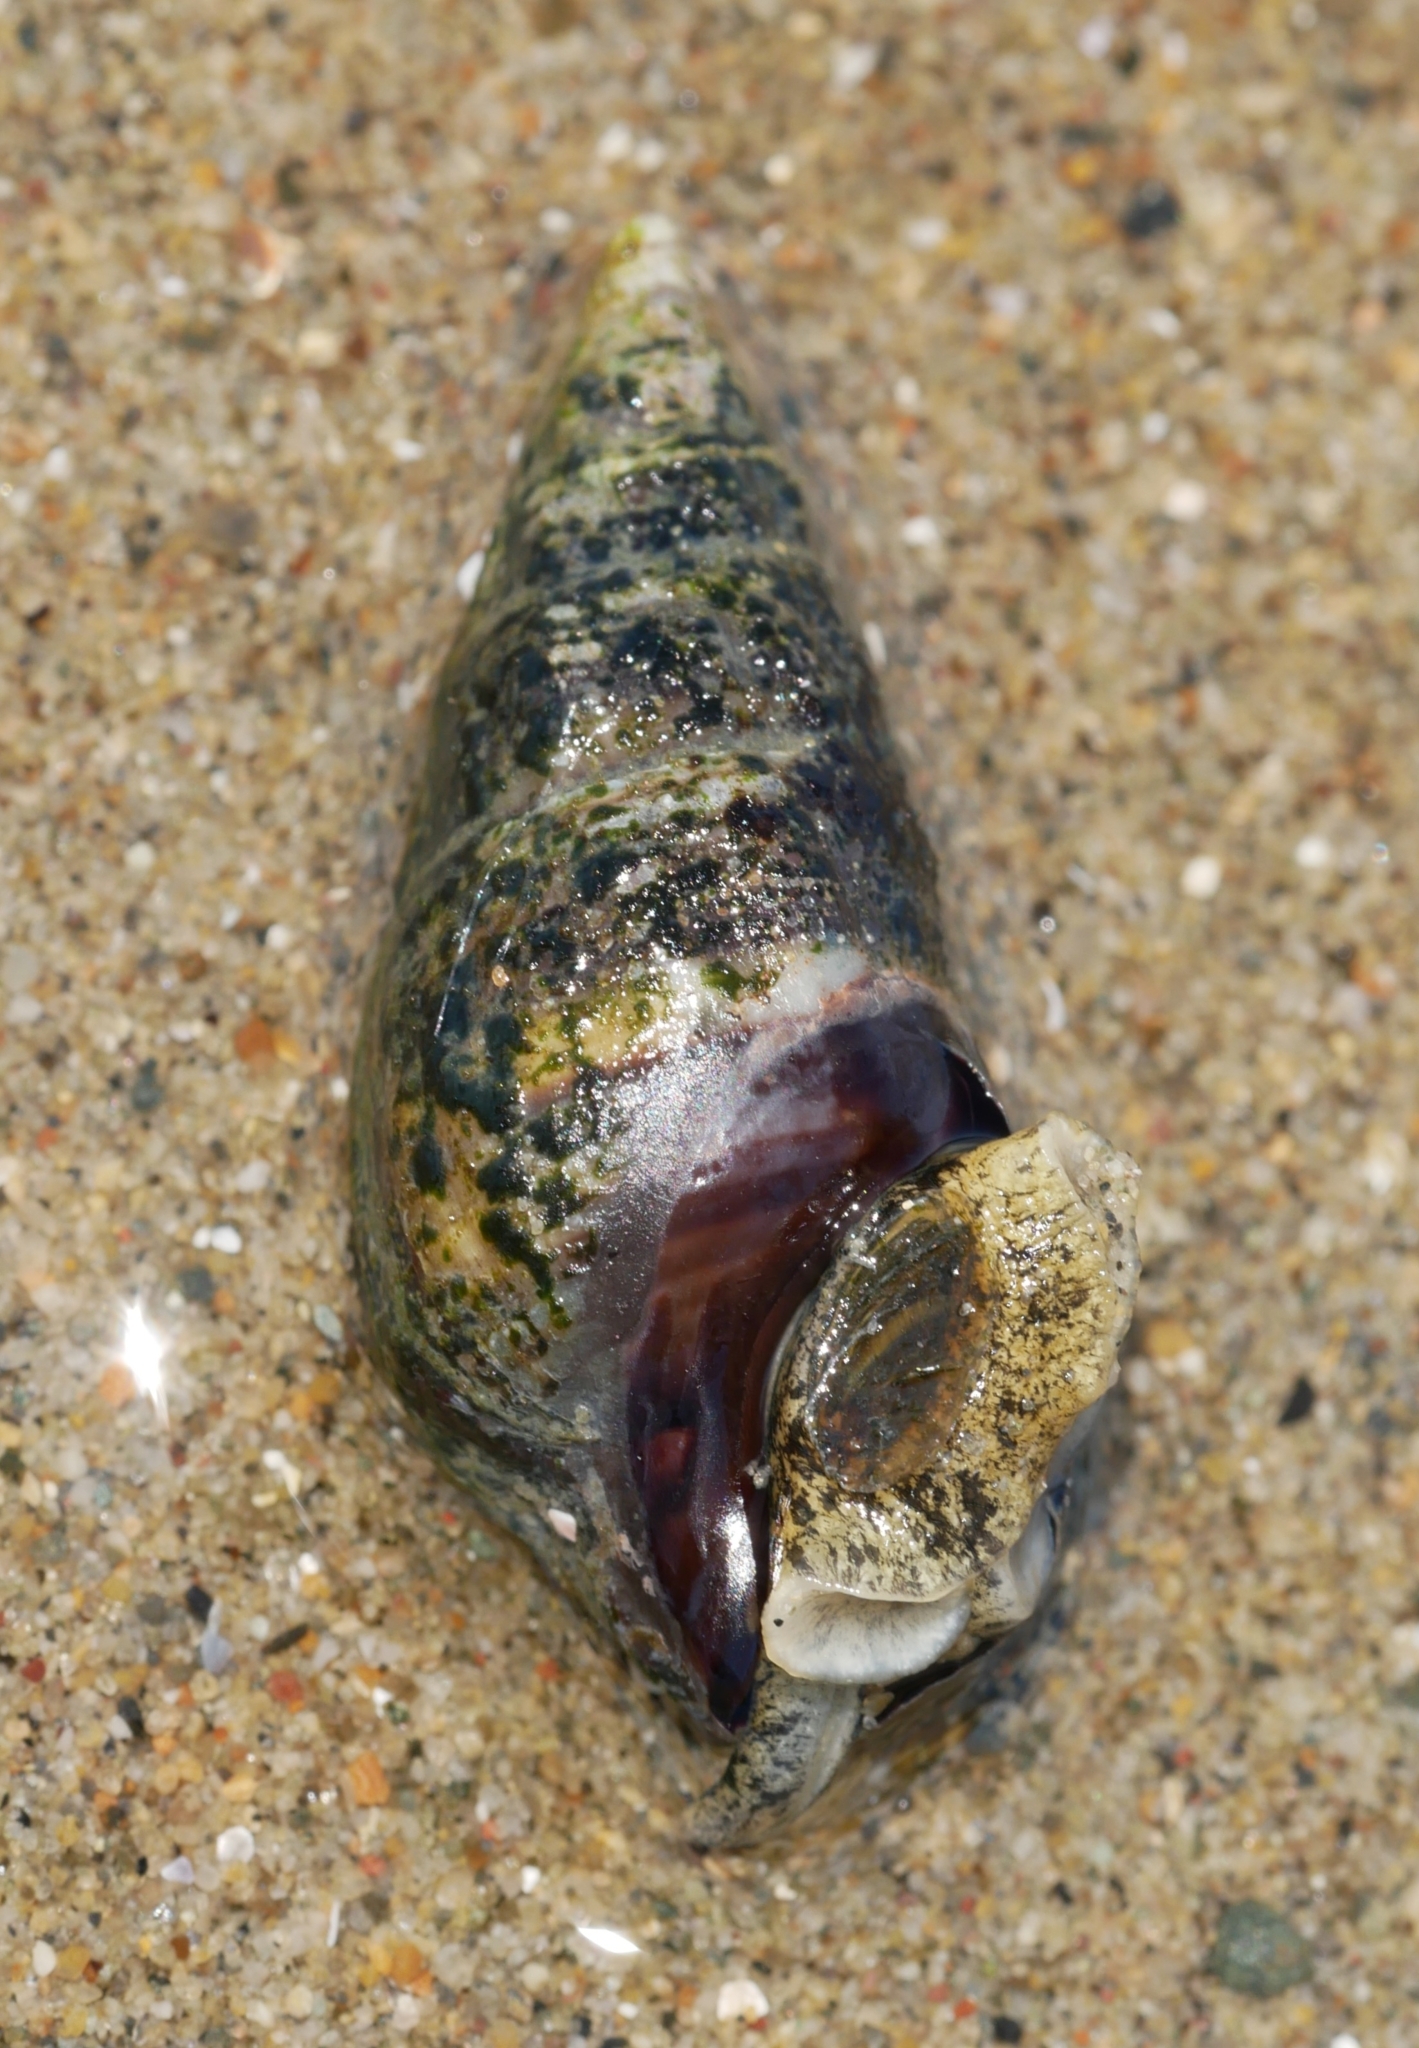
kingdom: Animalia
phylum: Mollusca
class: Gastropoda
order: Neogastropoda
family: Nassariidae
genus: Ilyanassa
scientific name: Ilyanassa obsoleta
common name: Eastern mudsnail
